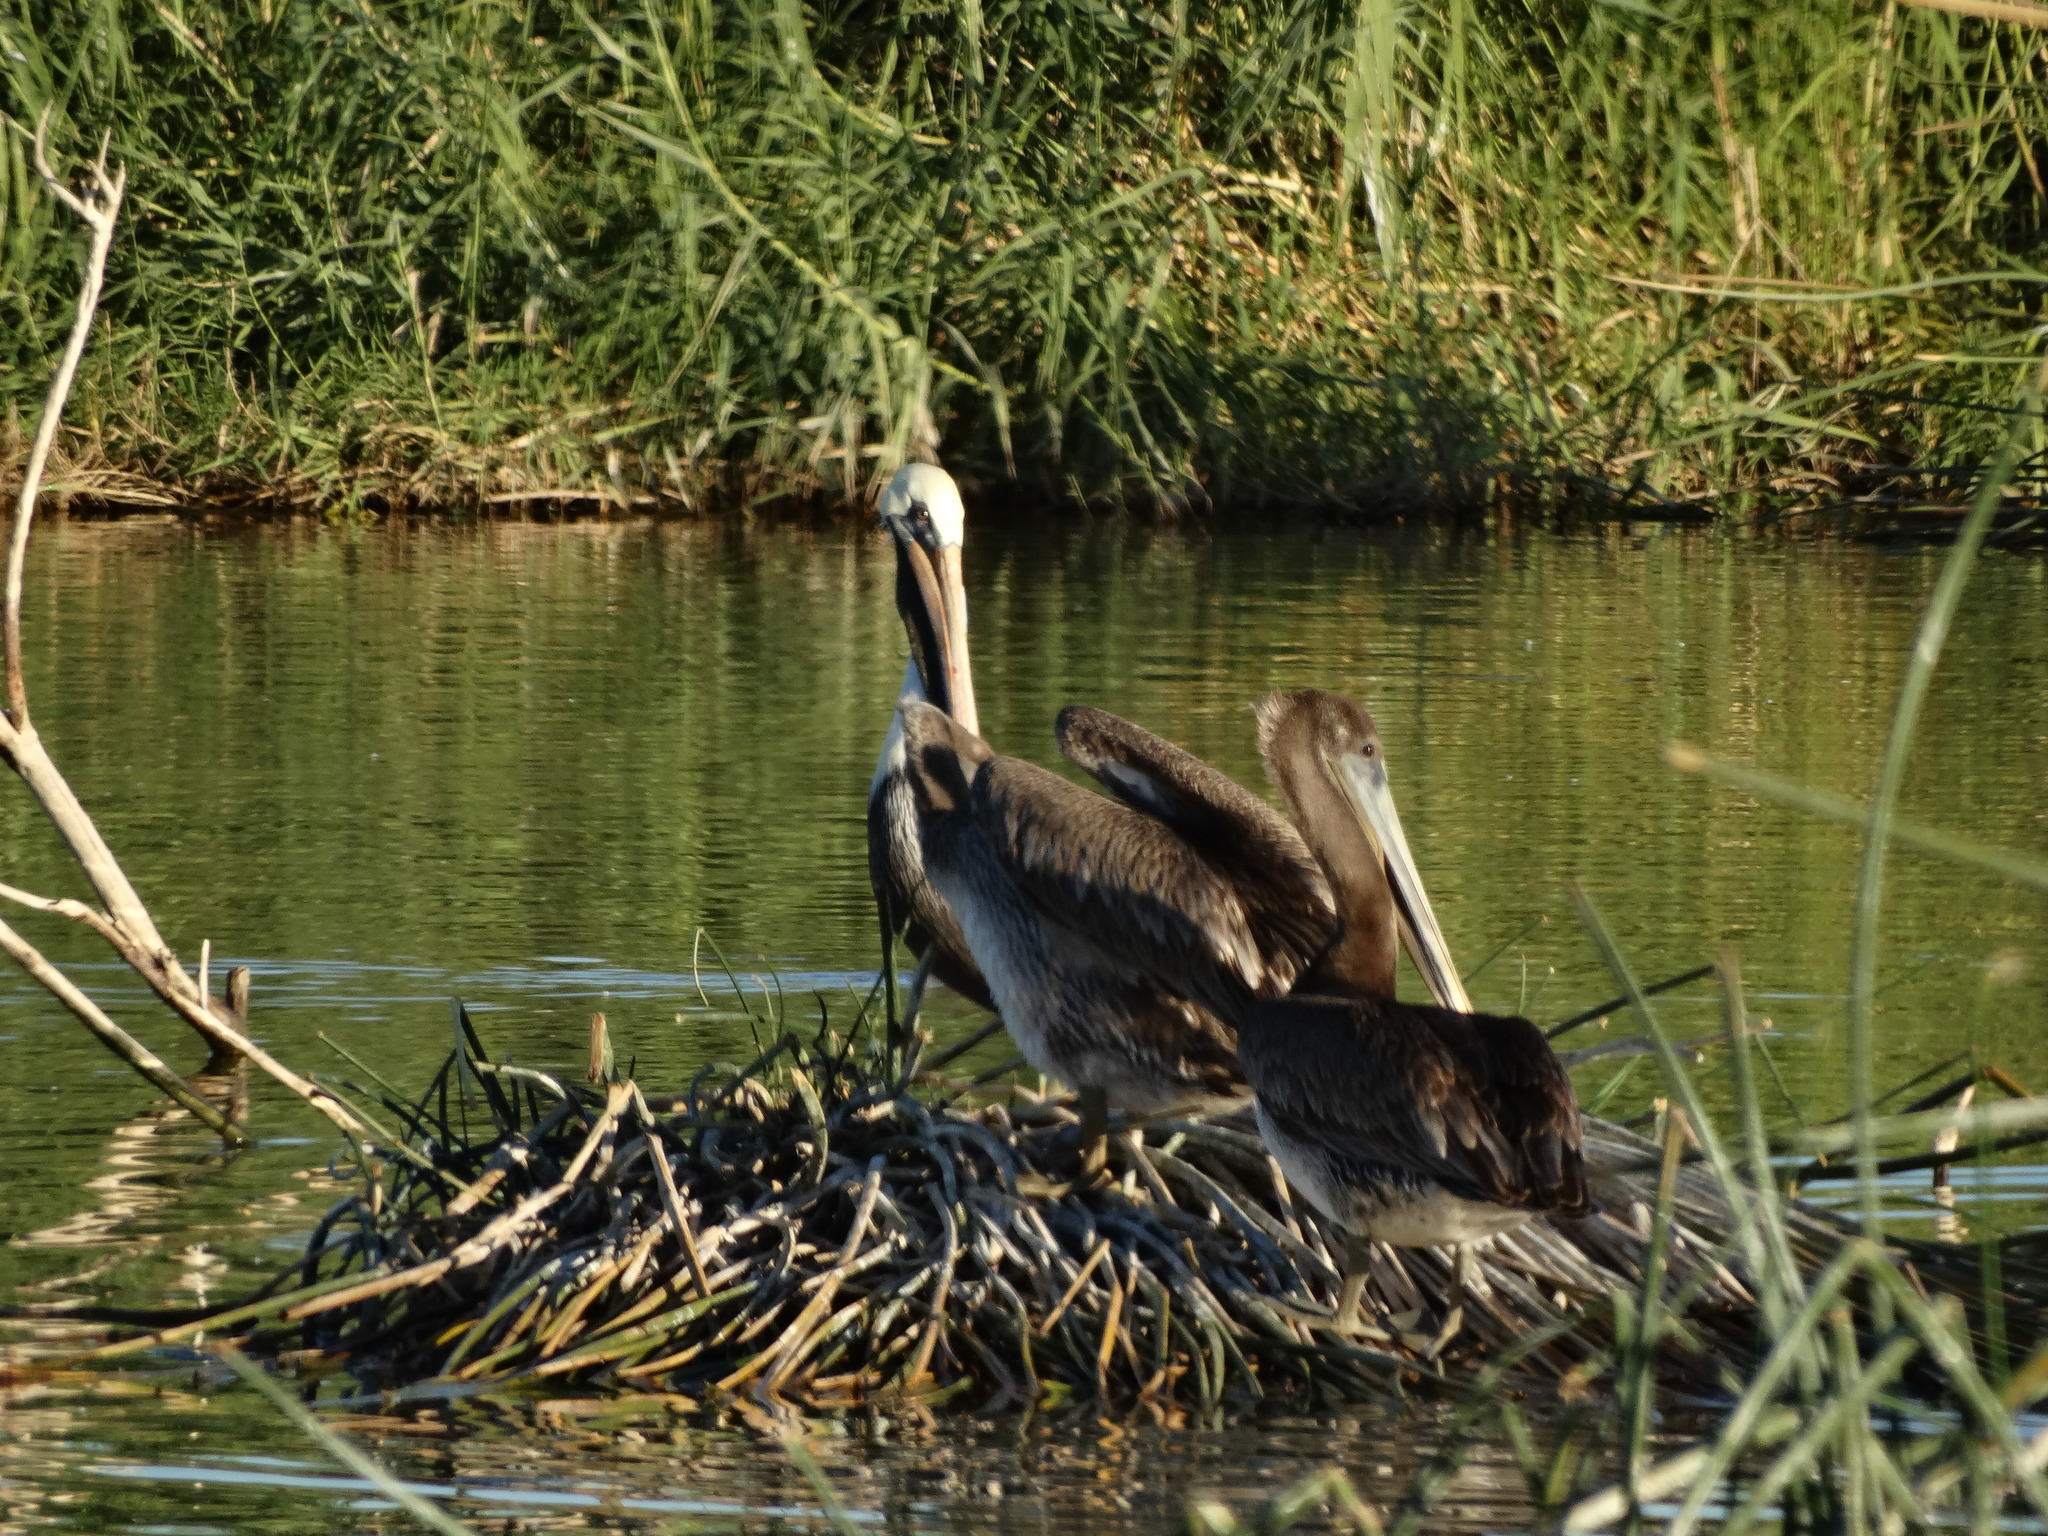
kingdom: Animalia
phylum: Chordata
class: Aves
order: Pelecaniformes
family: Pelecanidae
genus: Pelecanus
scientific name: Pelecanus occidentalis
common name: Brown pelican
